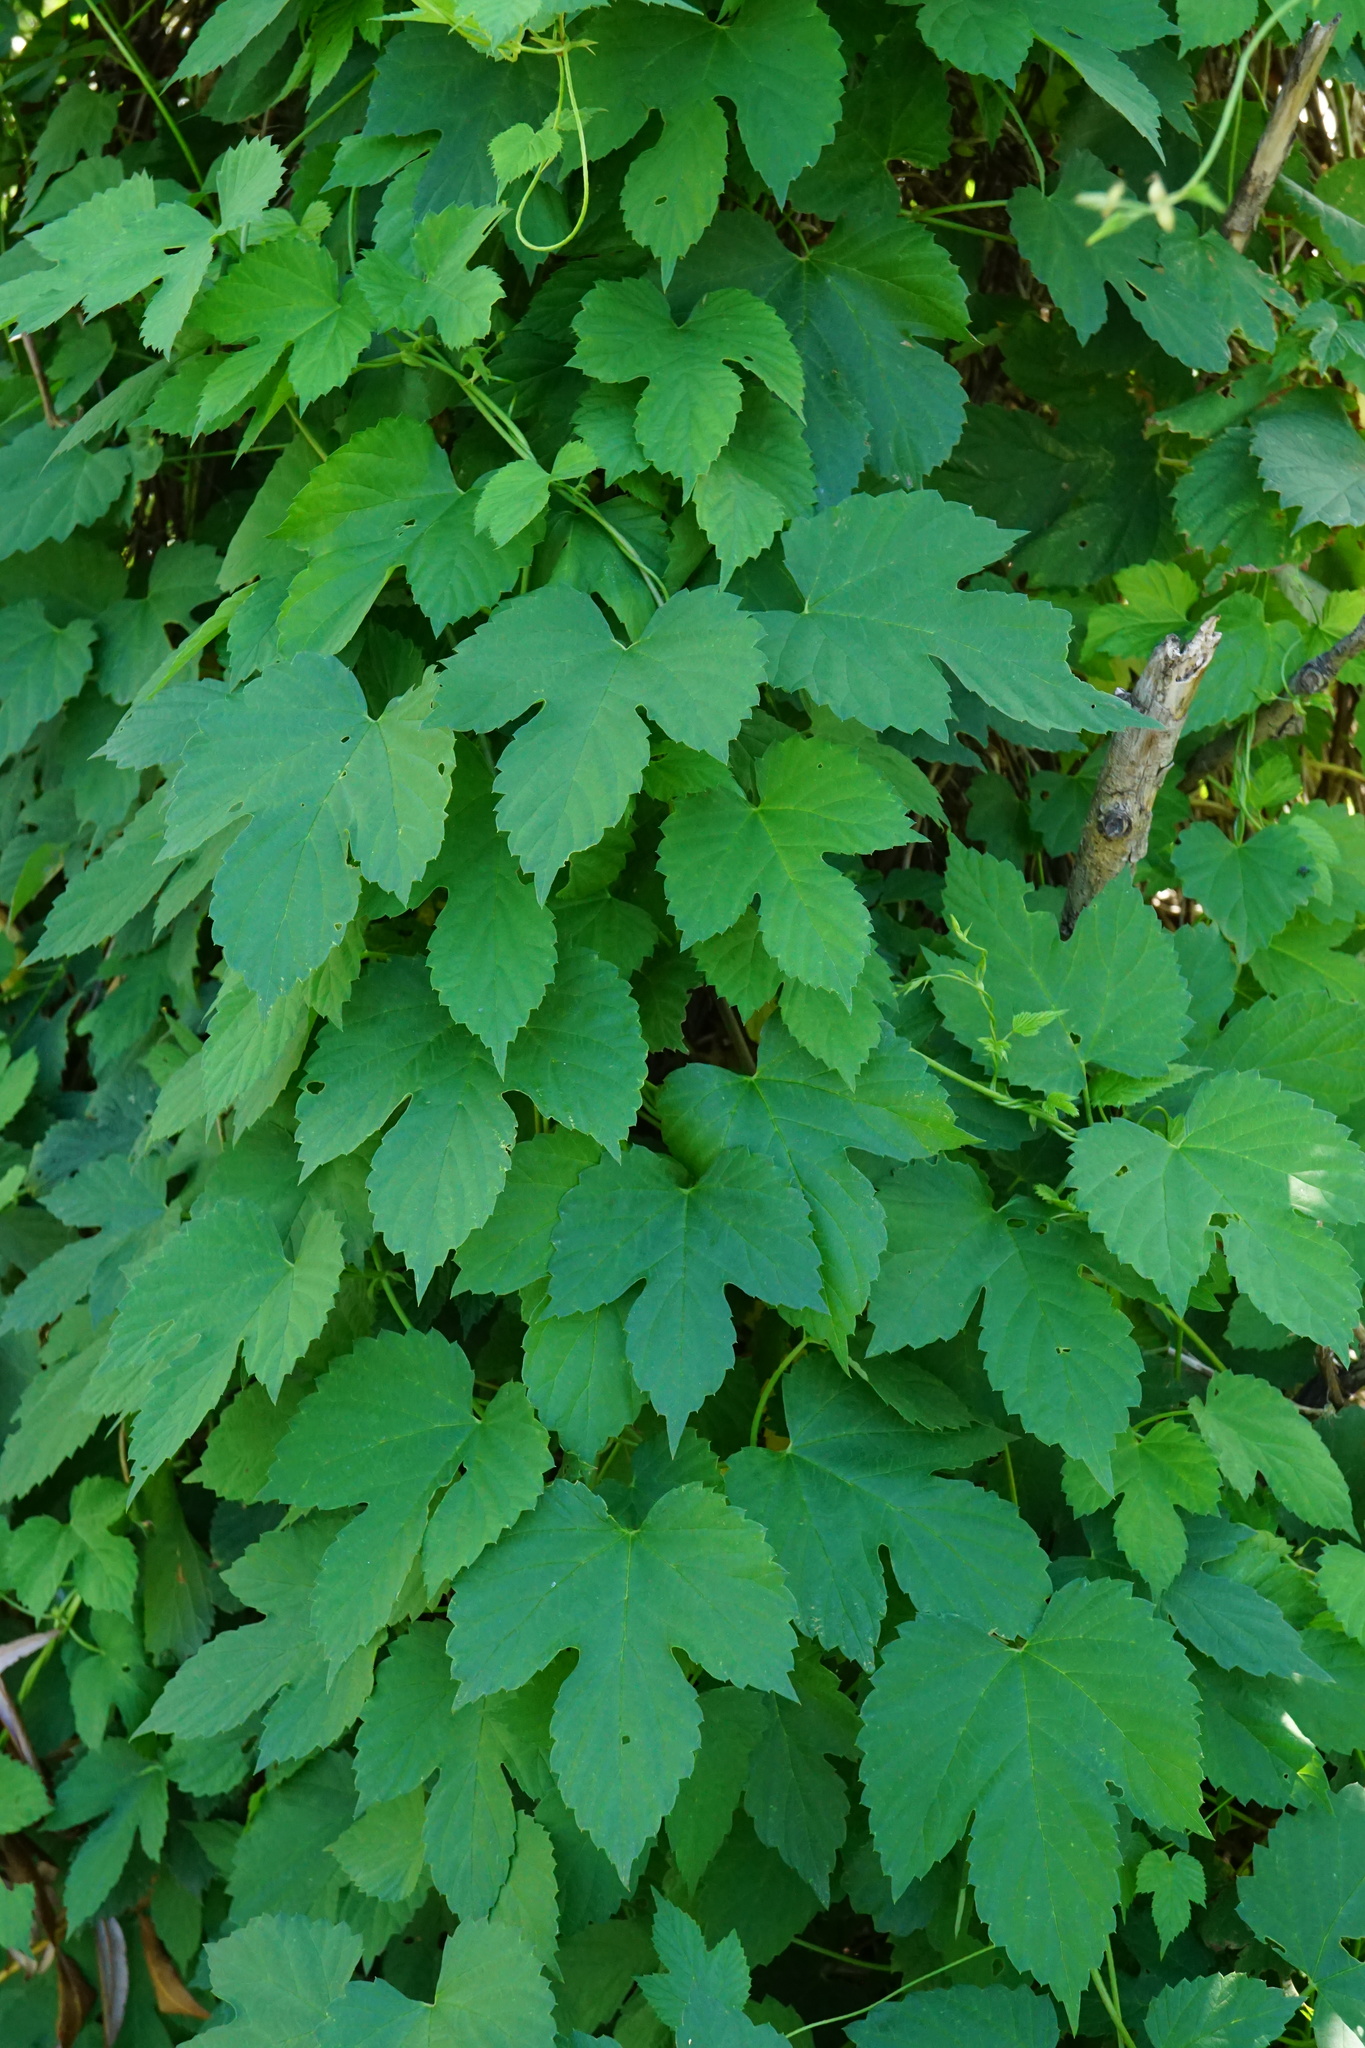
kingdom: Plantae
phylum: Tracheophyta
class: Magnoliopsida
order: Rosales
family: Cannabaceae
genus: Humulus
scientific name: Humulus lupulus
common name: Hop
